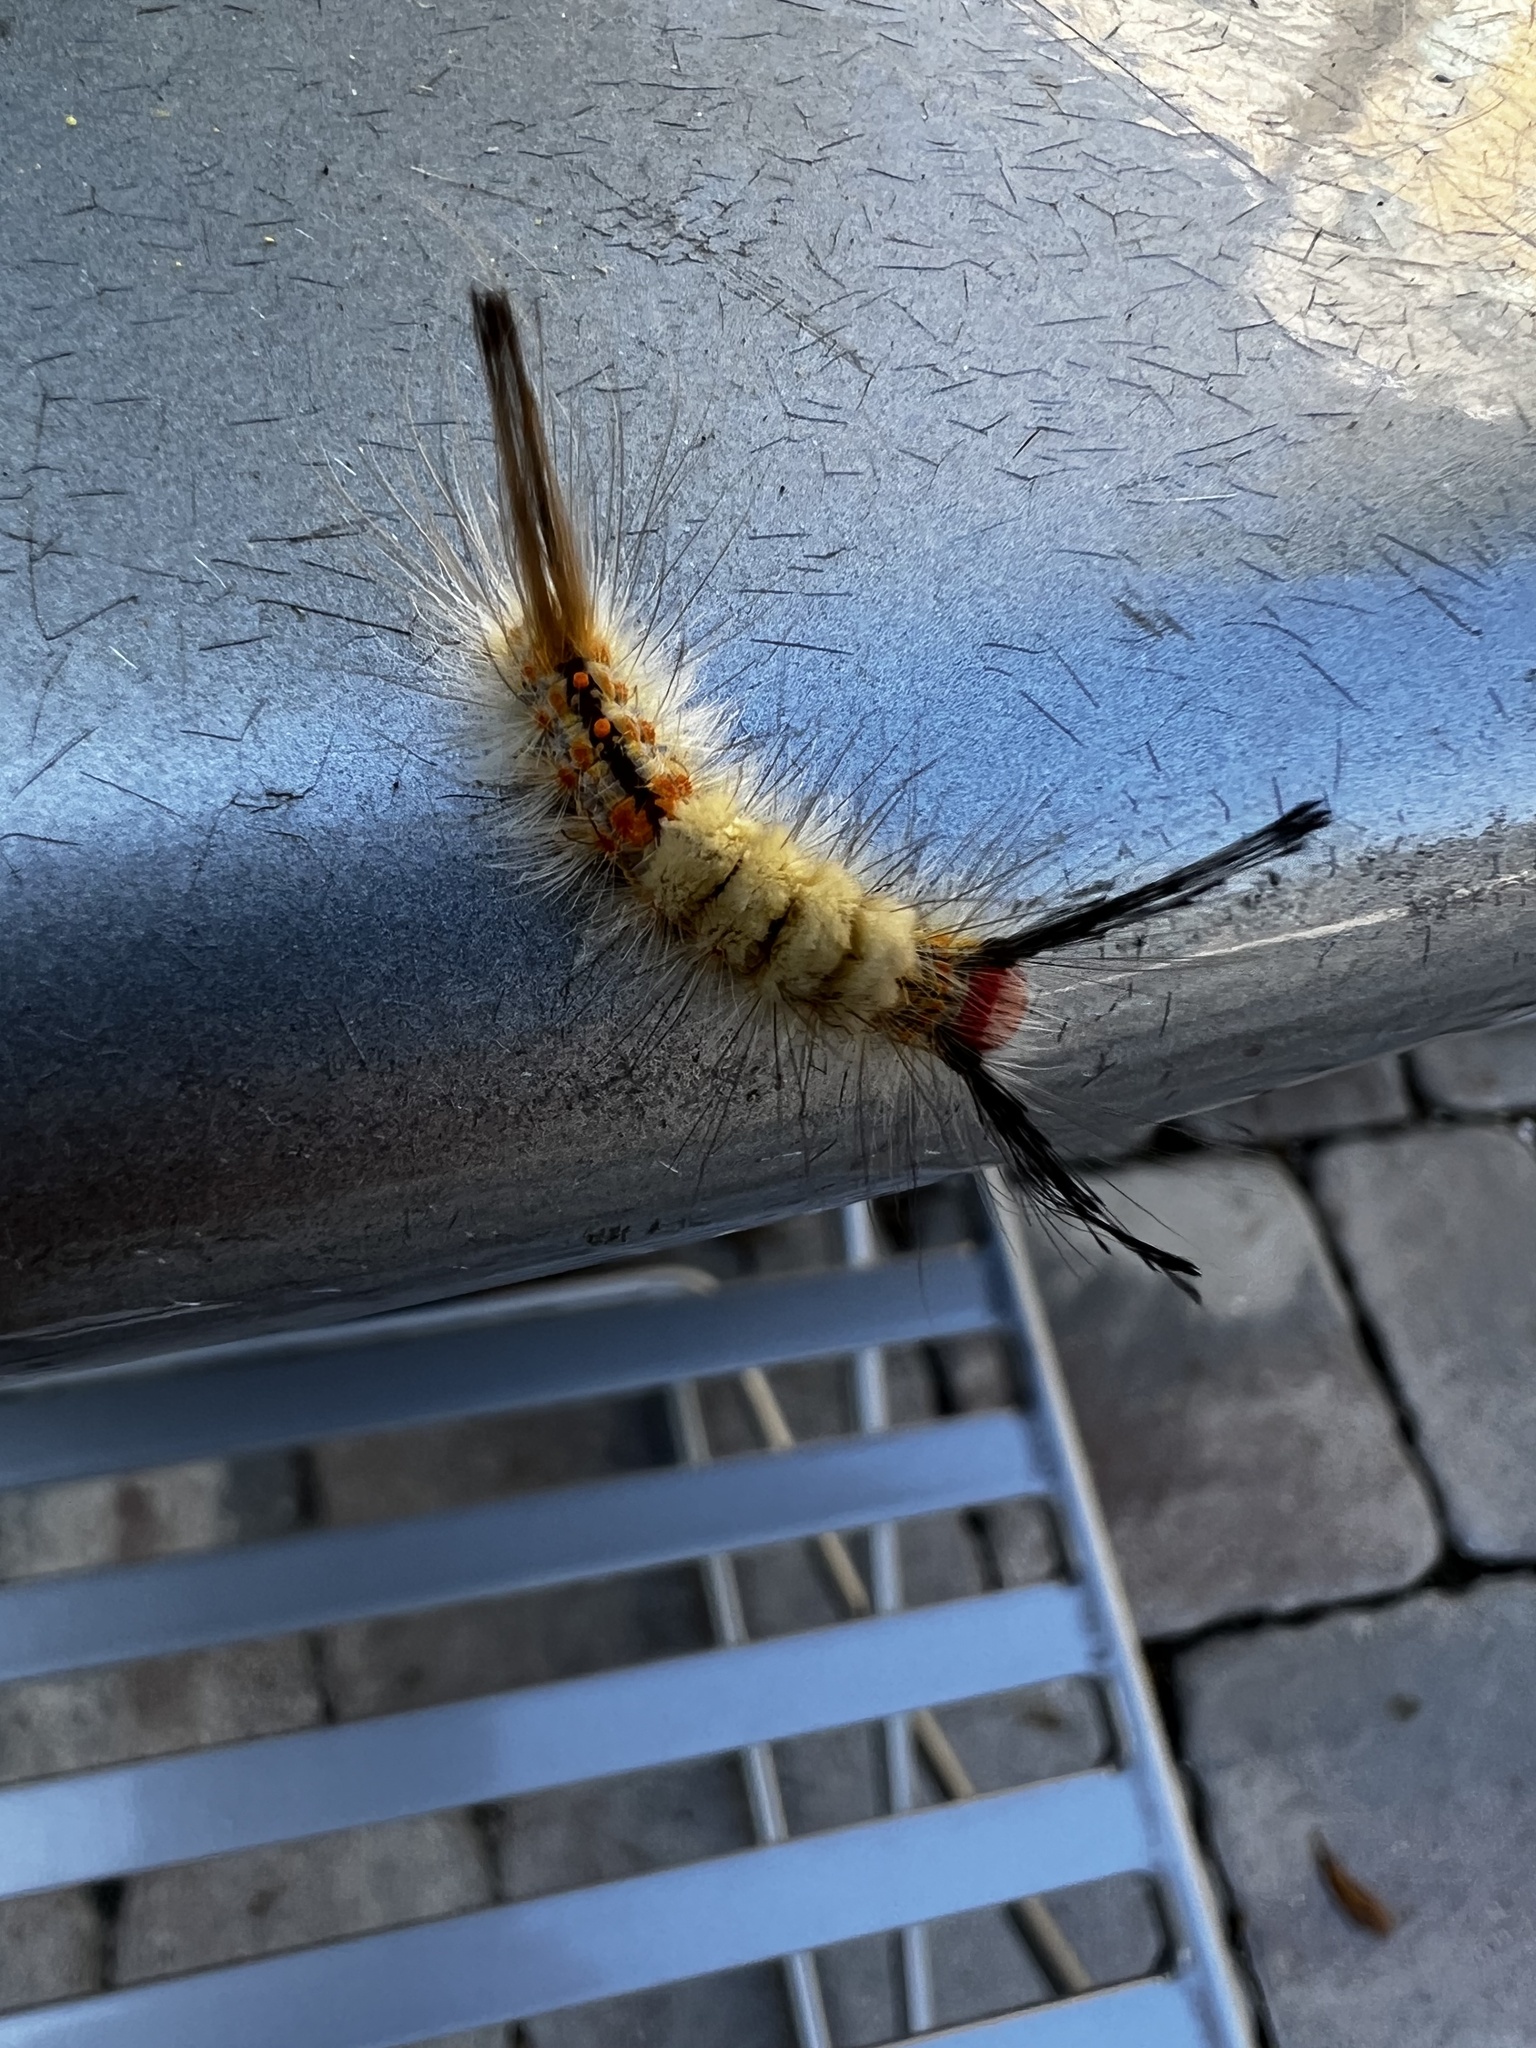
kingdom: Animalia
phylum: Arthropoda
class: Insecta
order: Lepidoptera
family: Erebidae
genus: Orgyia
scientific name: Orgyia detrita
